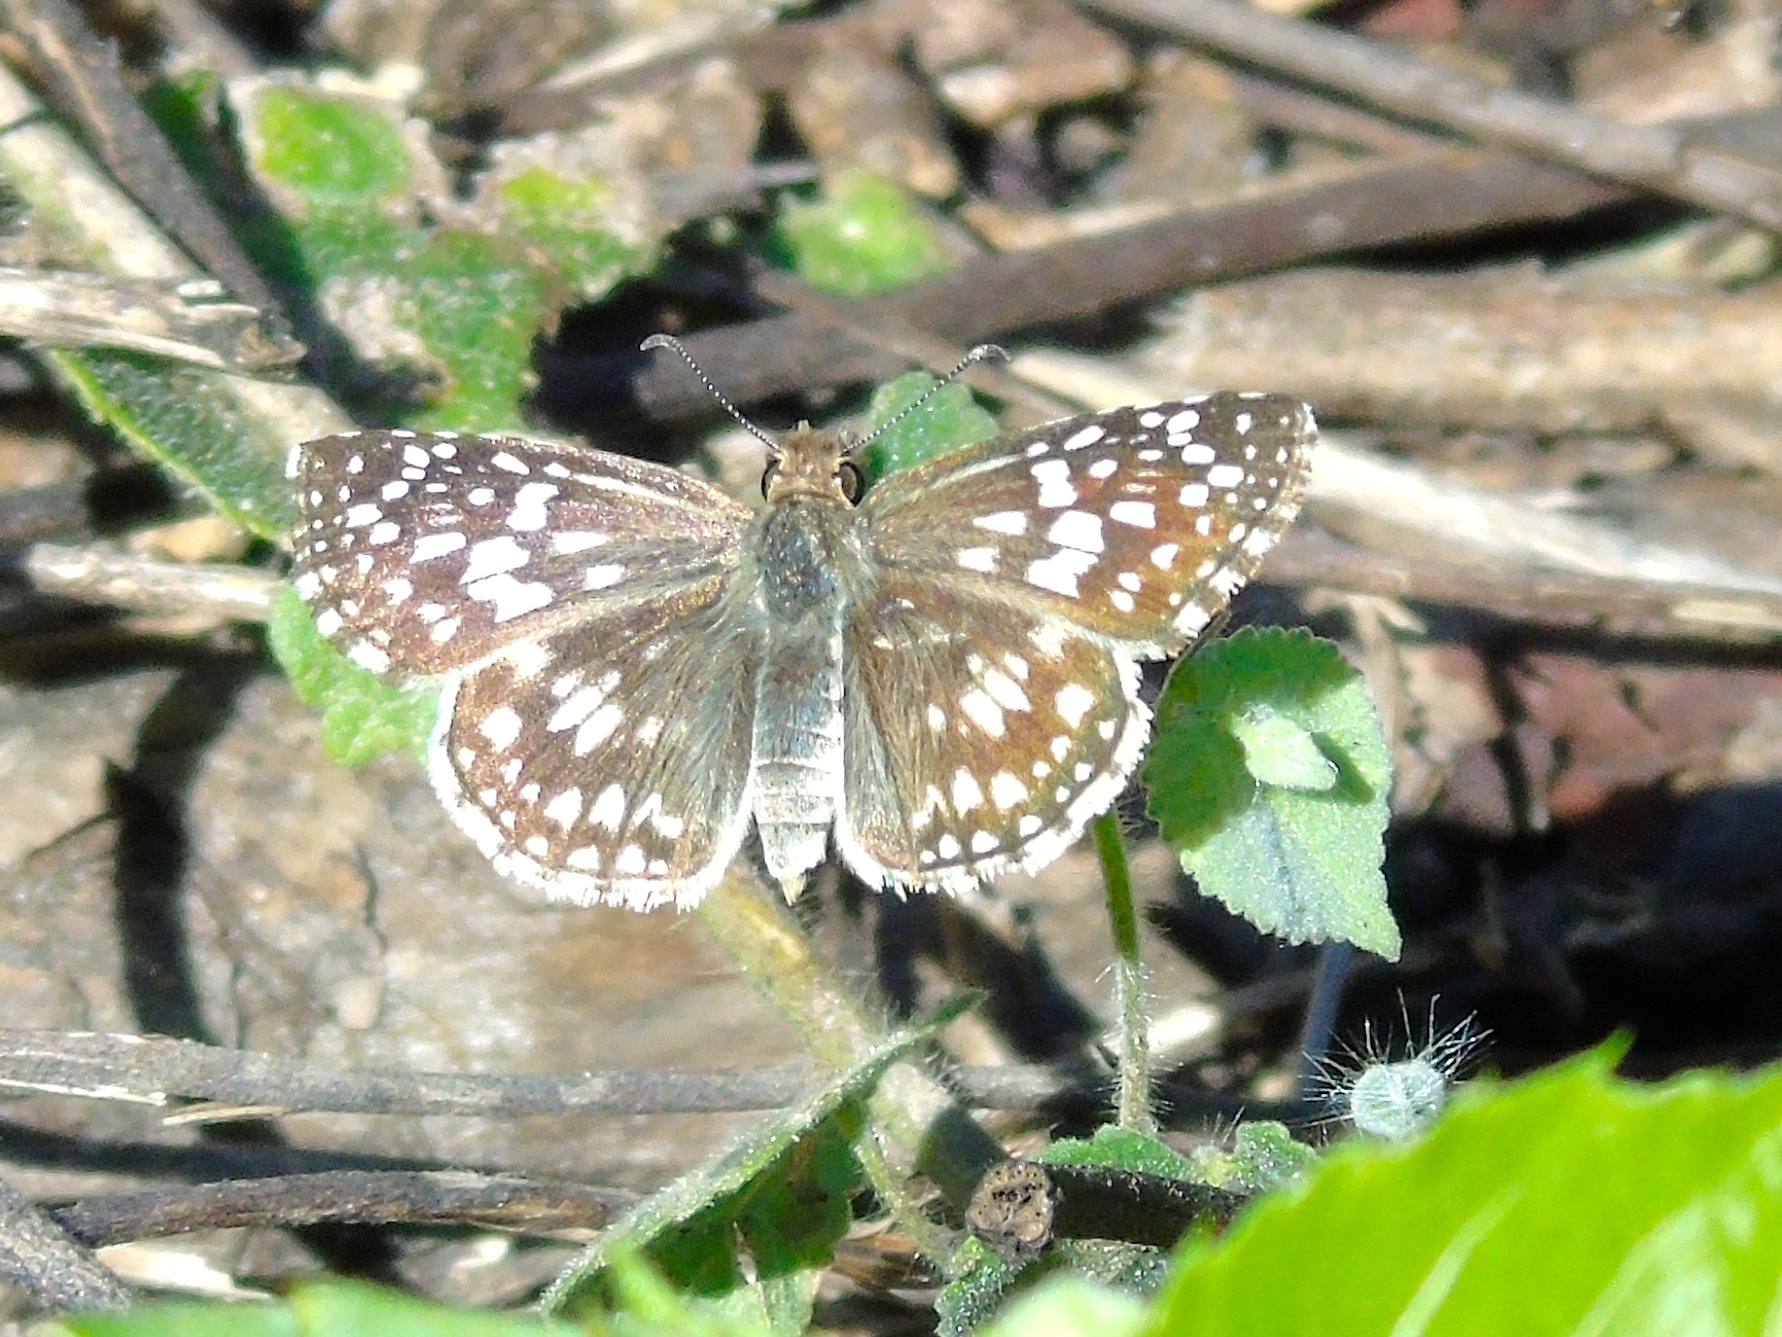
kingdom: Animalia
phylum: Arthropoda
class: Insecta
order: Lepidoptera
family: Hesperiidae
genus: Burnsius
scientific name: Burnsius
